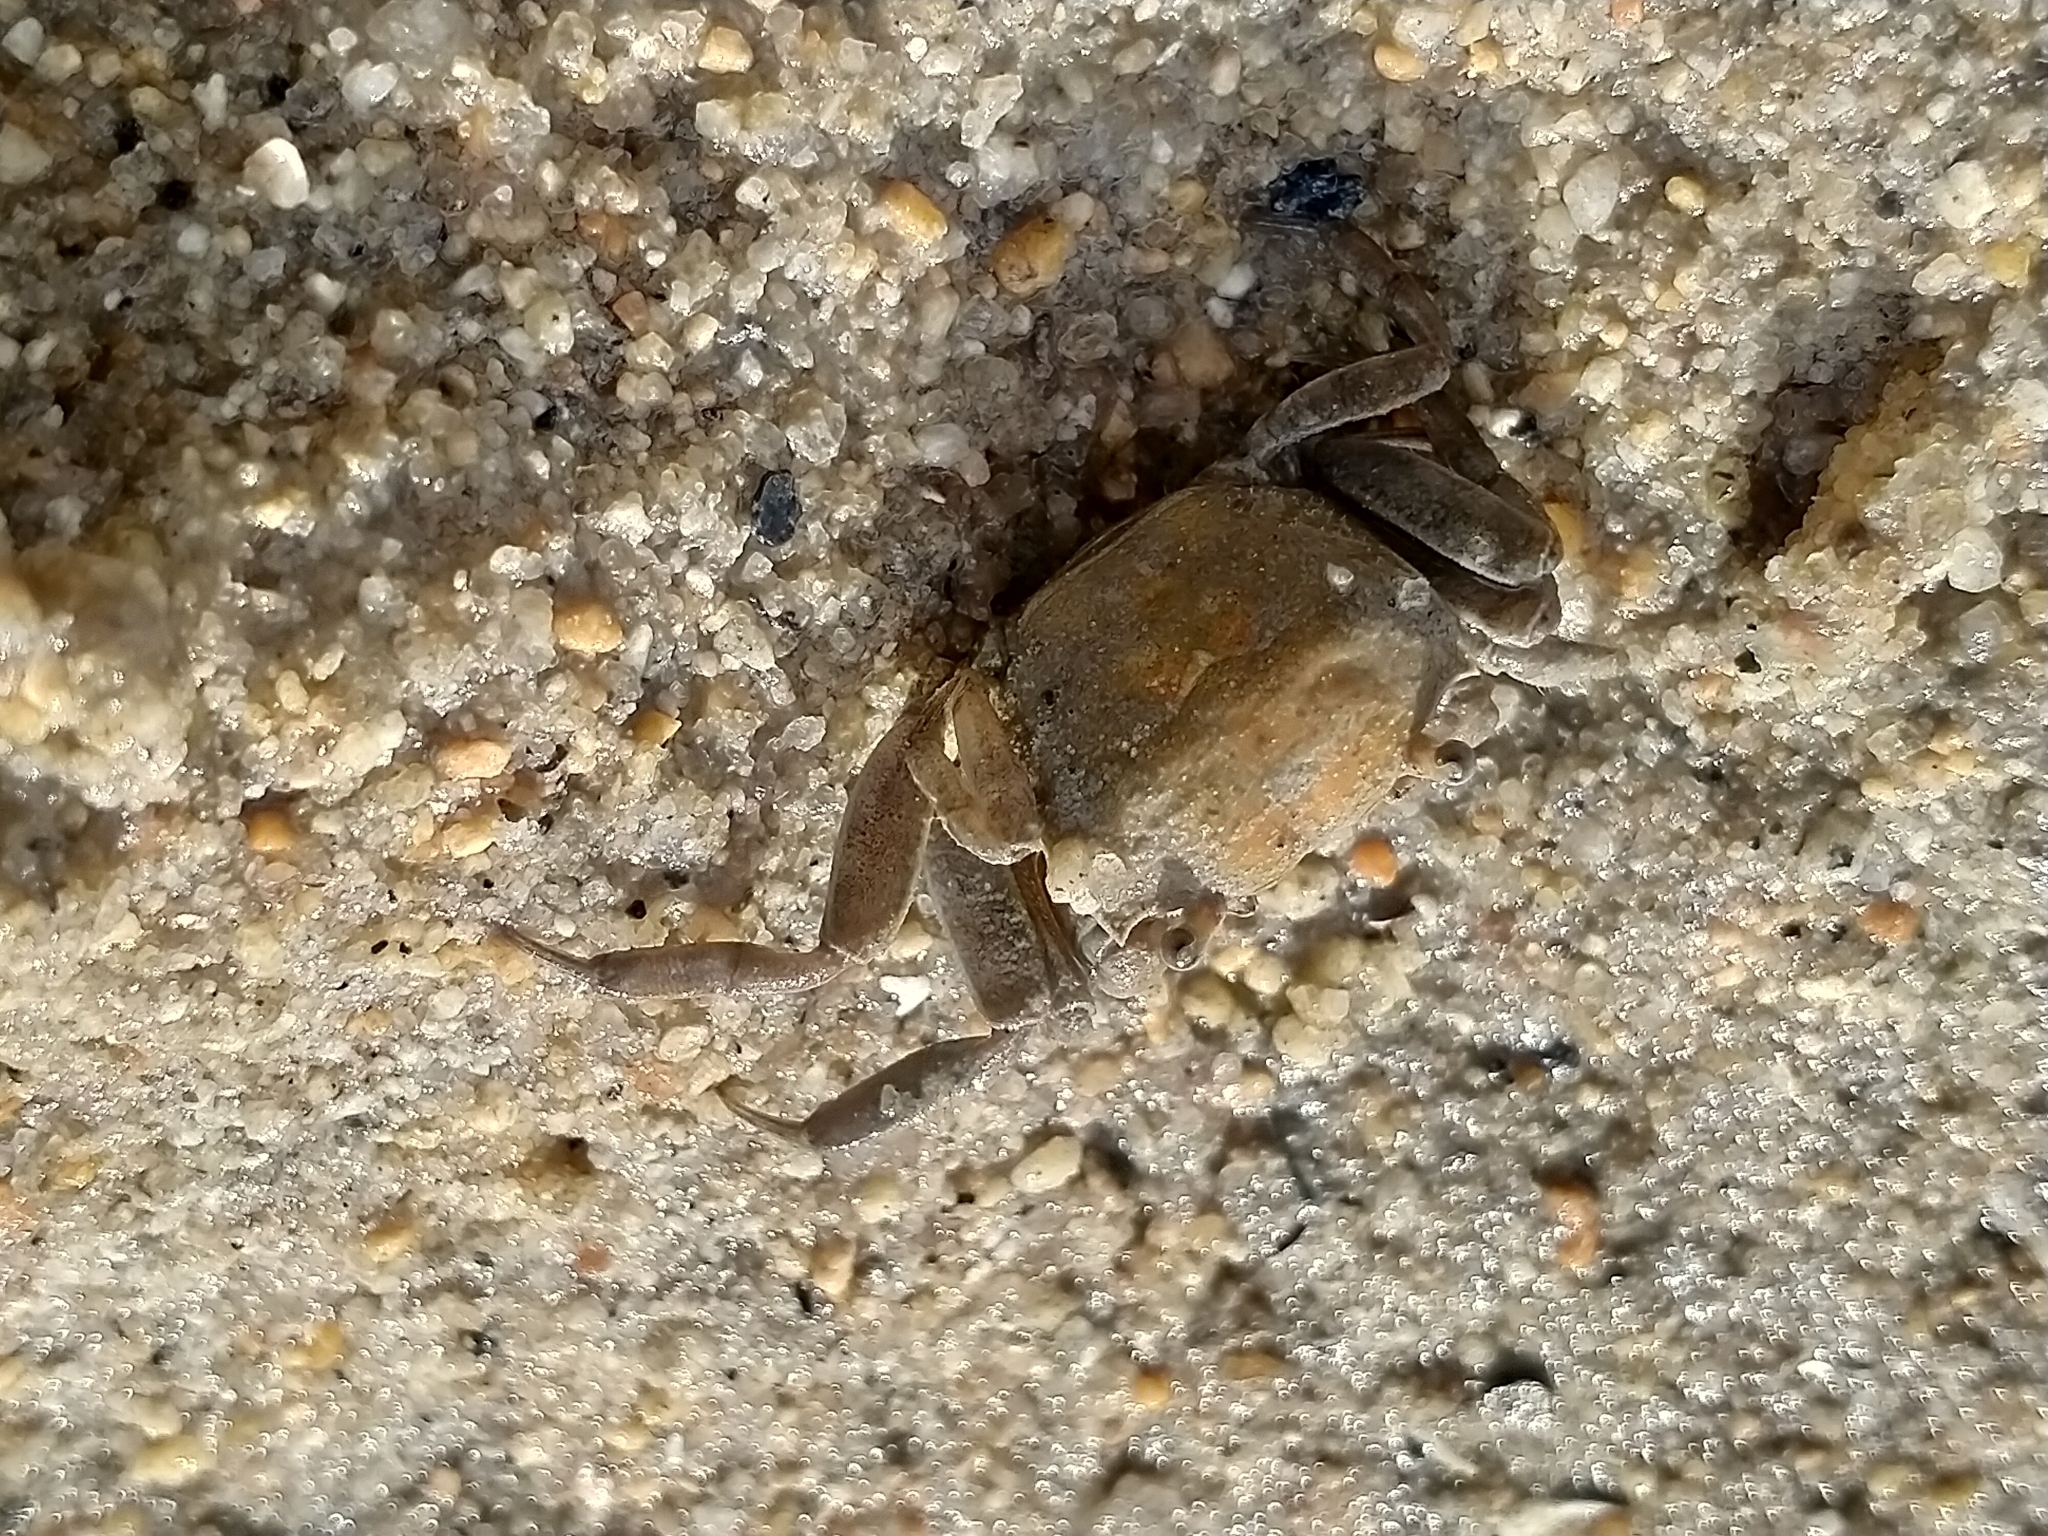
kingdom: Animalia
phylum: Arthropoda
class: Malacostraca
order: Decapoda
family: Varunidae
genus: Austrohelice
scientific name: Austrohelice crassa
